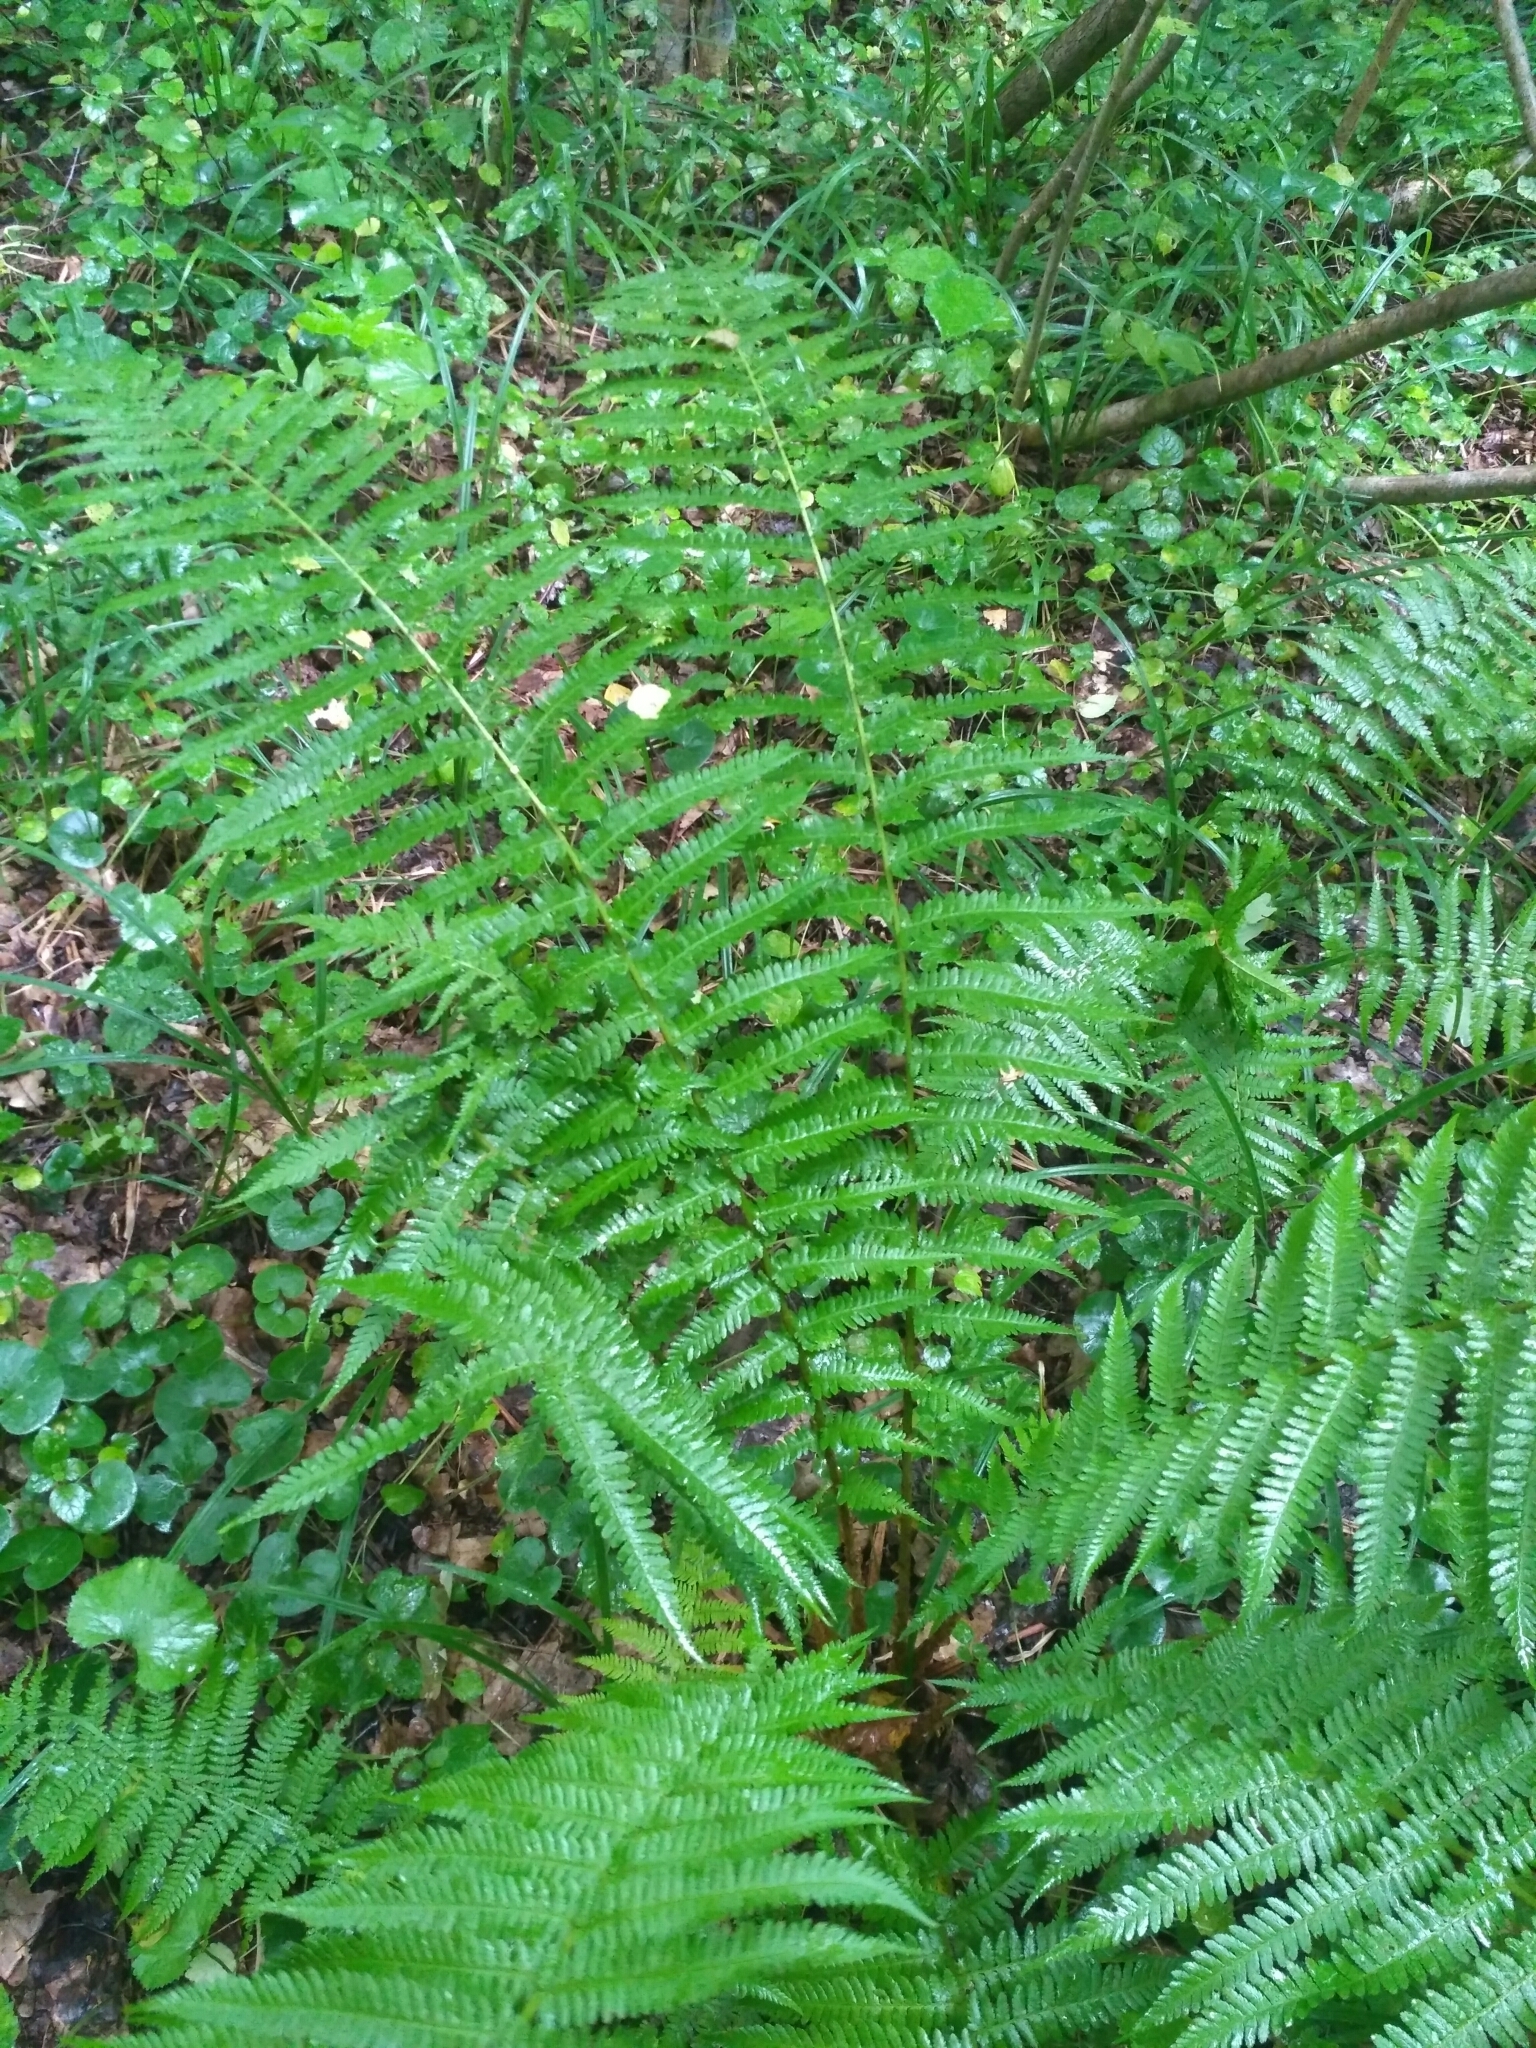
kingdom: Plantae
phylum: Tracheophyta
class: Polypodiopsida
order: Polypodiales
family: Dryopteridaceae
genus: Dryopteris
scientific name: Dryopteris filix-mas
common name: Male fern
